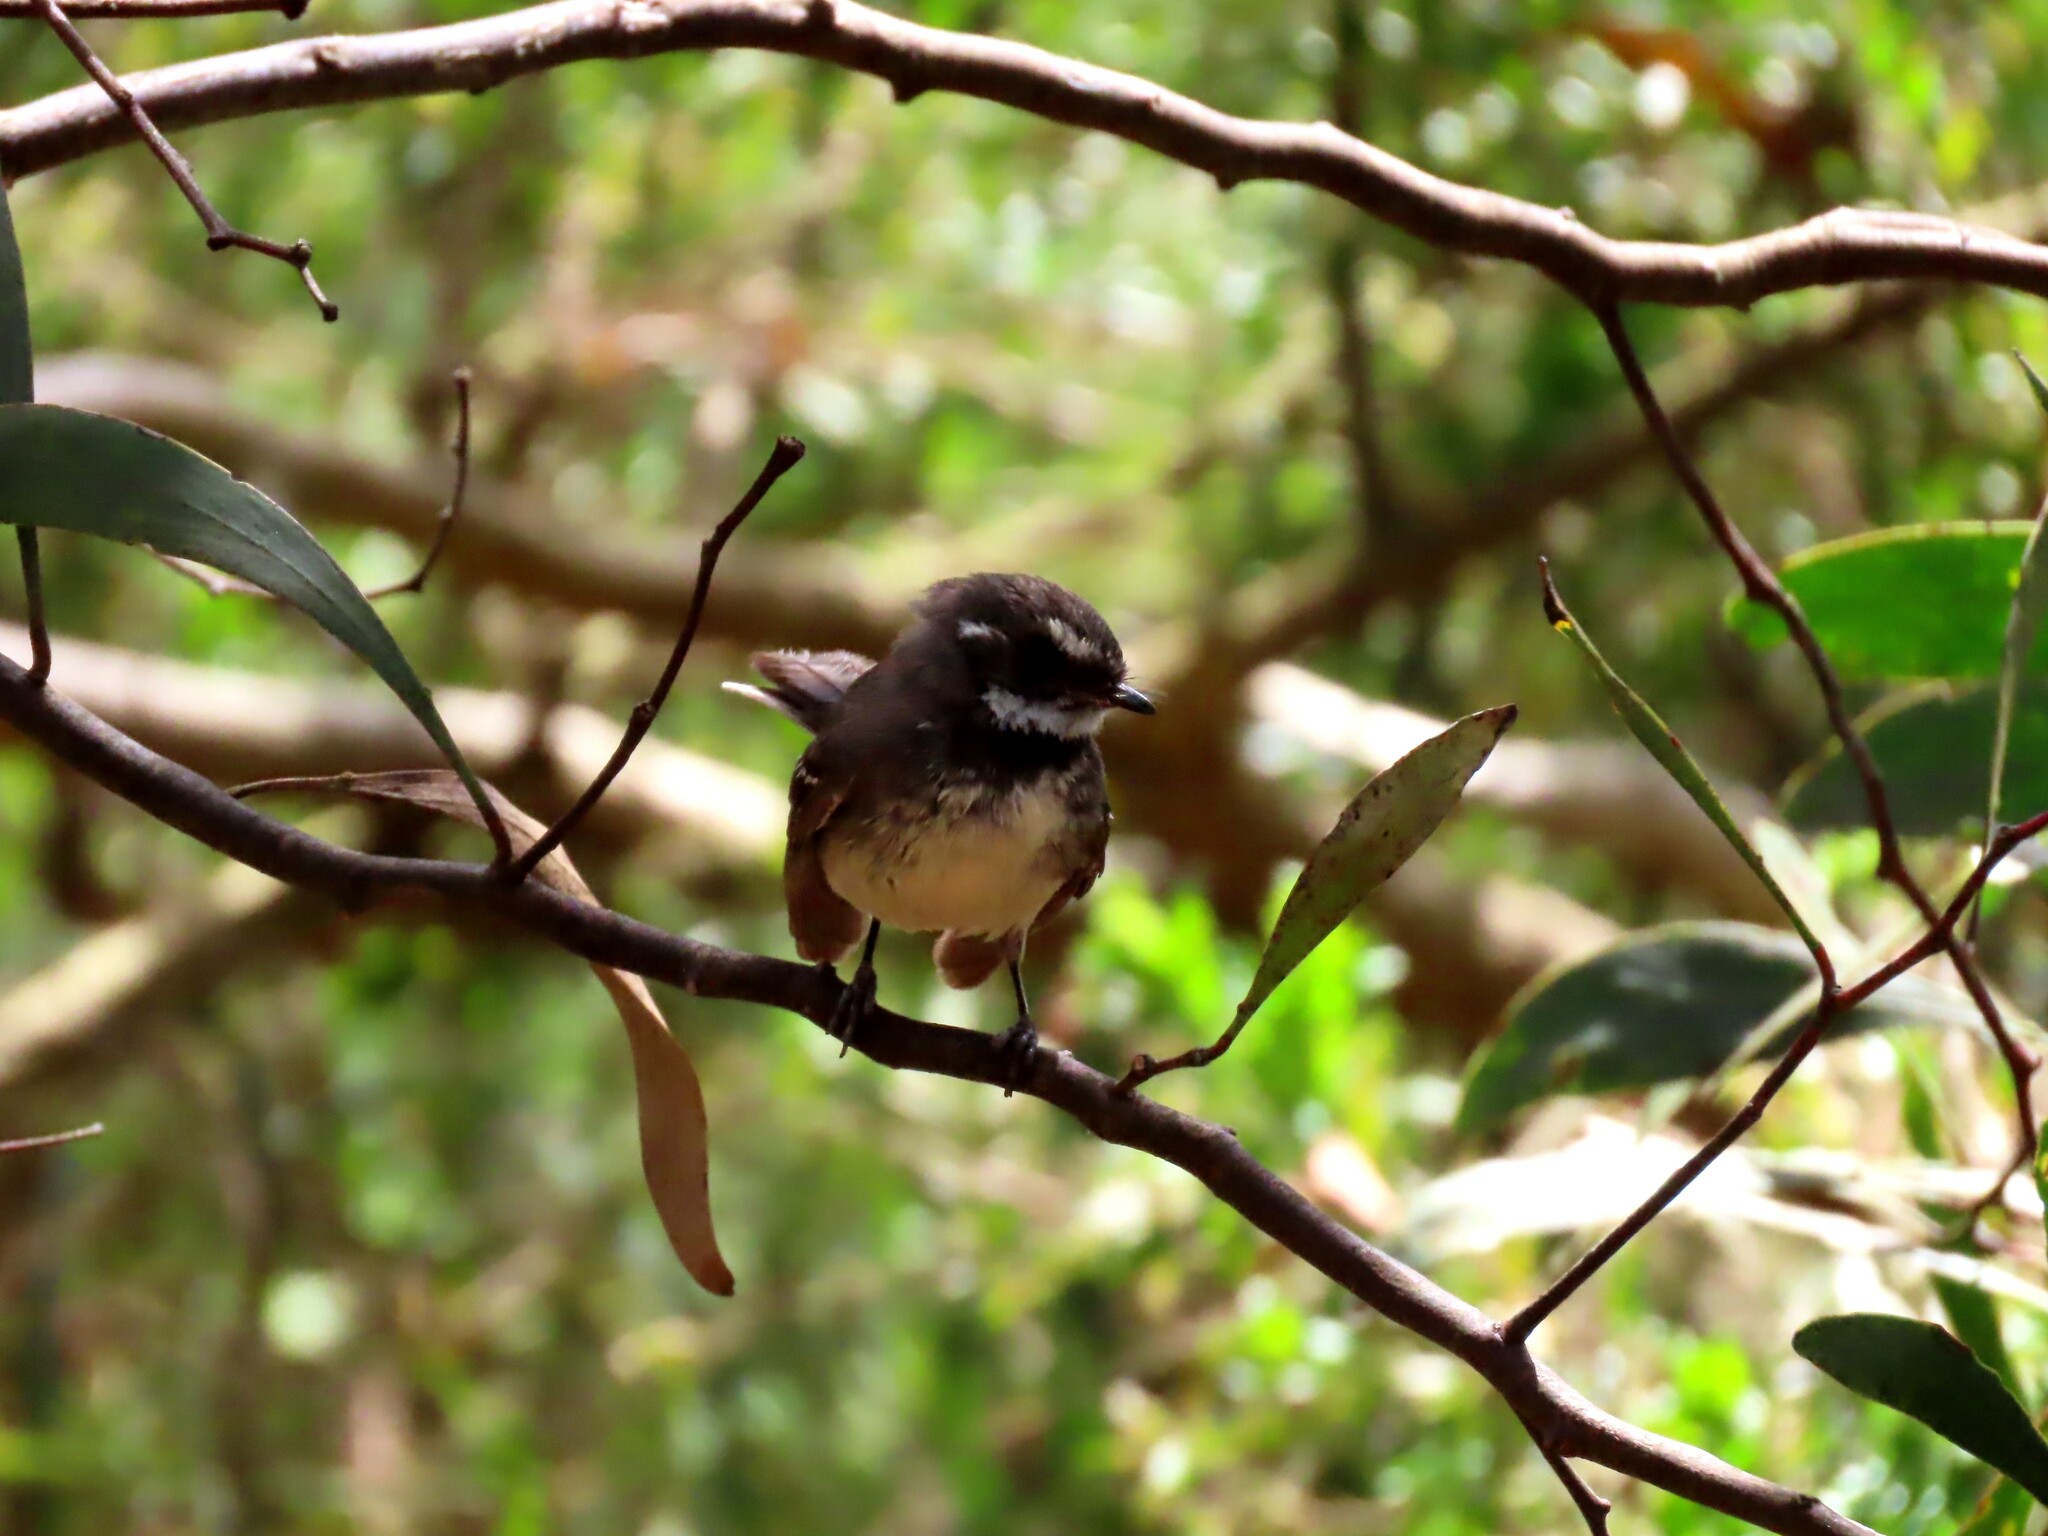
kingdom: Animalia
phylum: Chordata
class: Aves
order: Passeriformes
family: Rhipiduridae
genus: Rhipidura
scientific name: Rhipidura albiscapa
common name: Grey fantail
